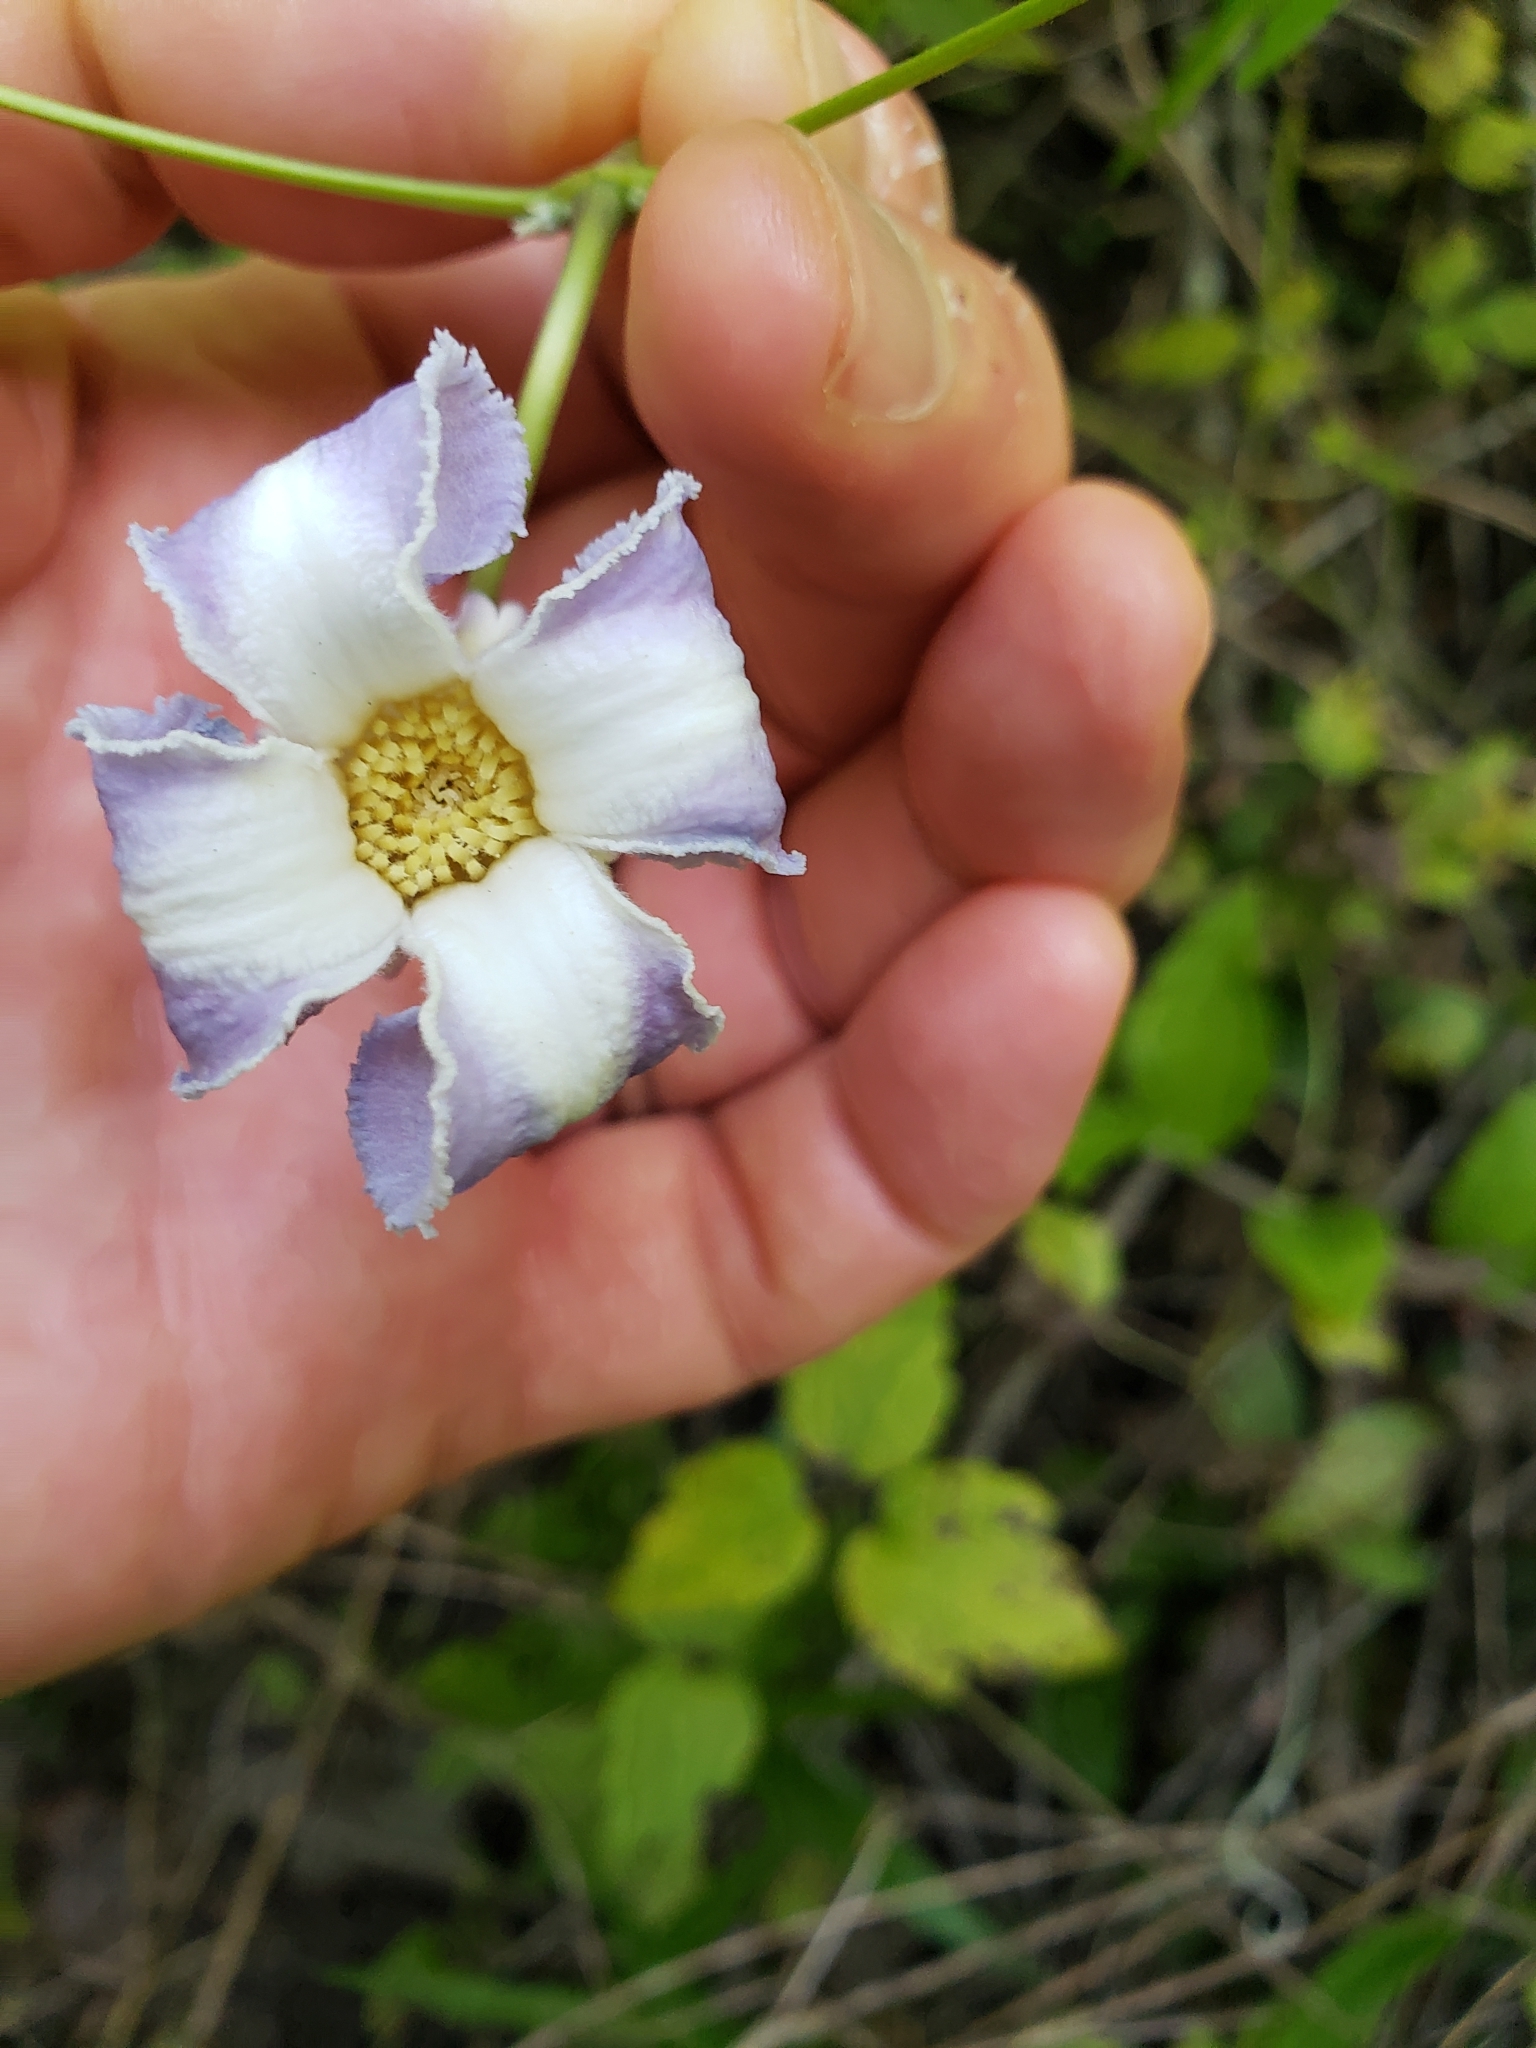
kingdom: Plantae
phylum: Tracheophyta
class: Magnoliopsida
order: Ranunculales
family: Ranunculaceae
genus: Clematis
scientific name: Clematis crispa
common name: Curly clematis
